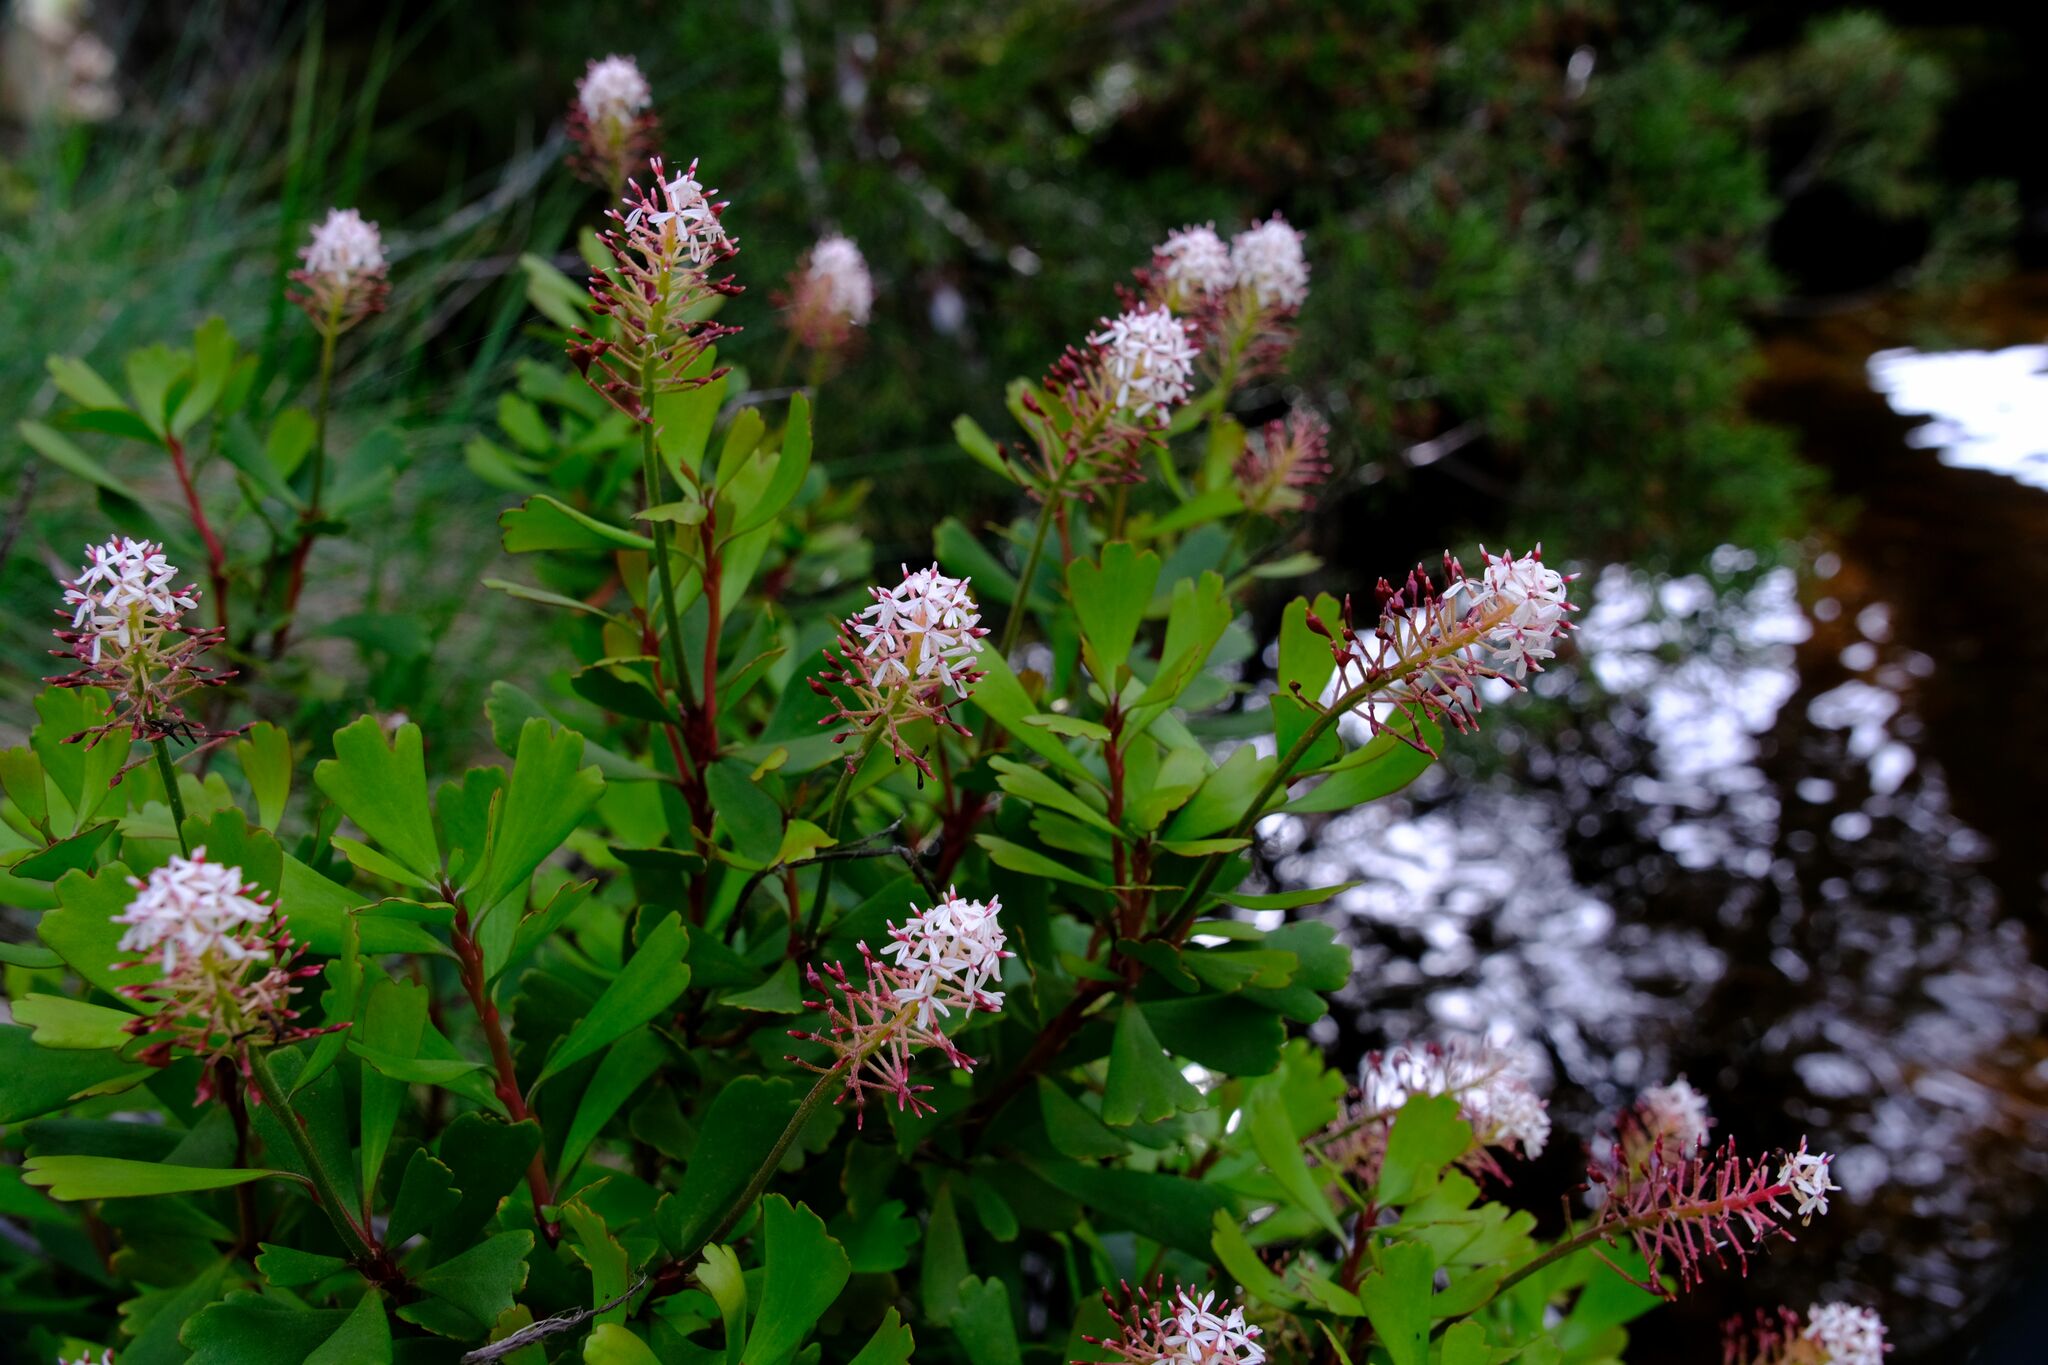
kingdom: Plantae
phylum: Tracheophyta
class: Magnoliopsida
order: Proteales
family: Proteaceae
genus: Bellendena
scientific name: Bellendena montana
